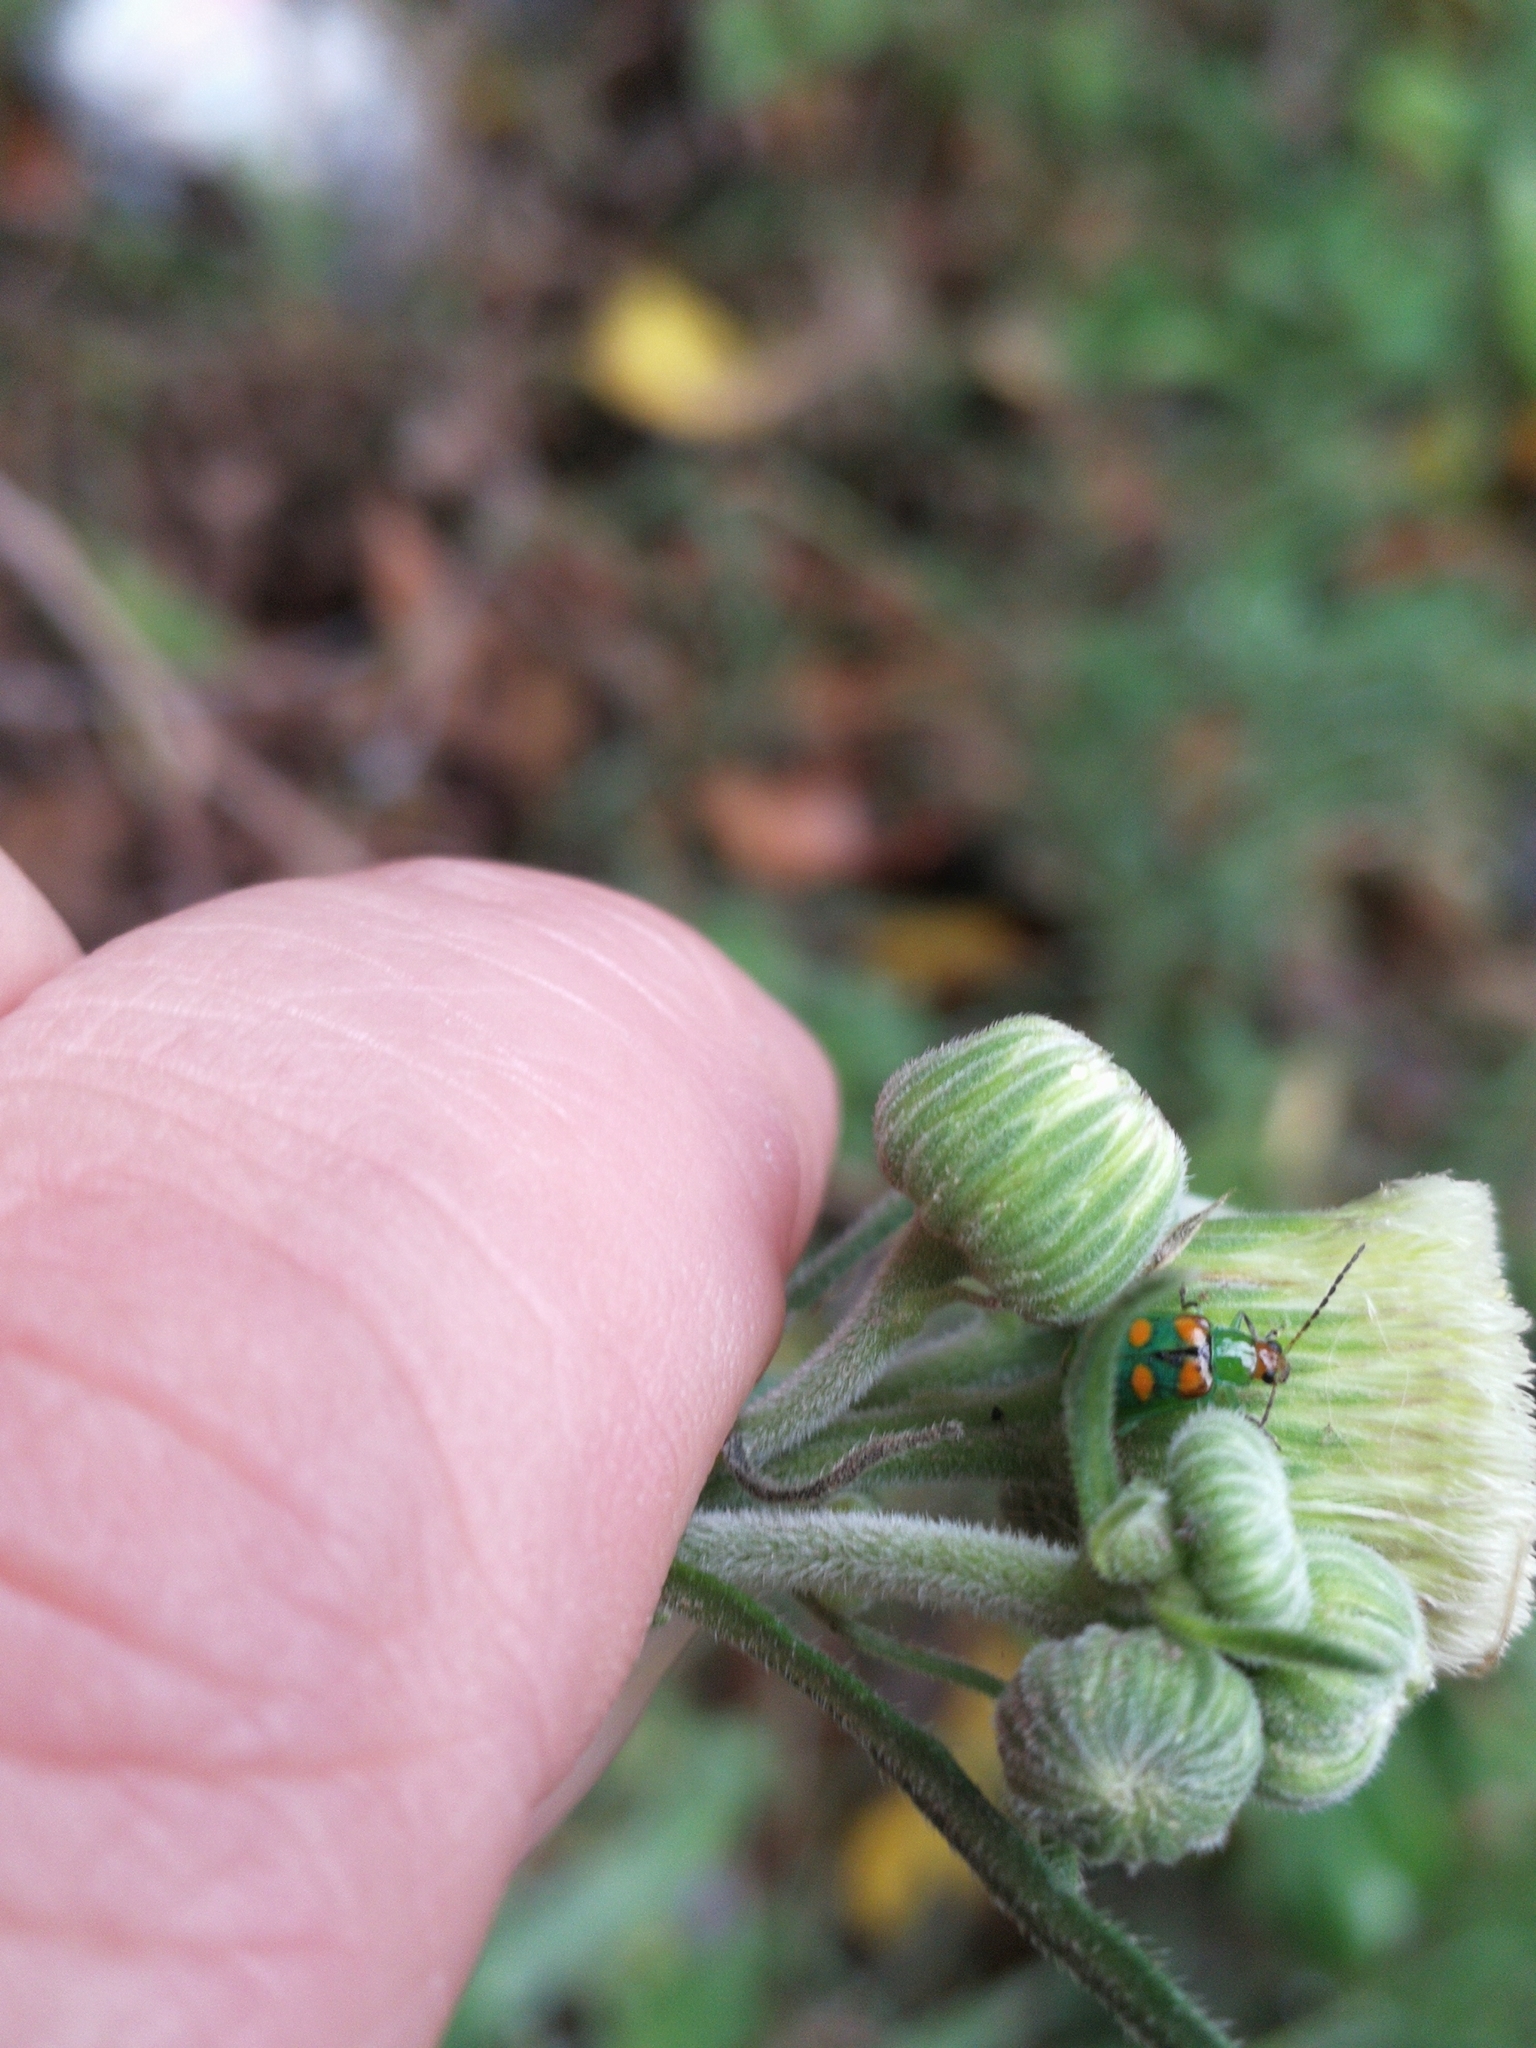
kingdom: Animalia
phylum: Arthropoda
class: Insecta
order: Coleoptera
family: Chrysomelidae
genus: Diabrotica
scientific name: Diabrotica speciosa
